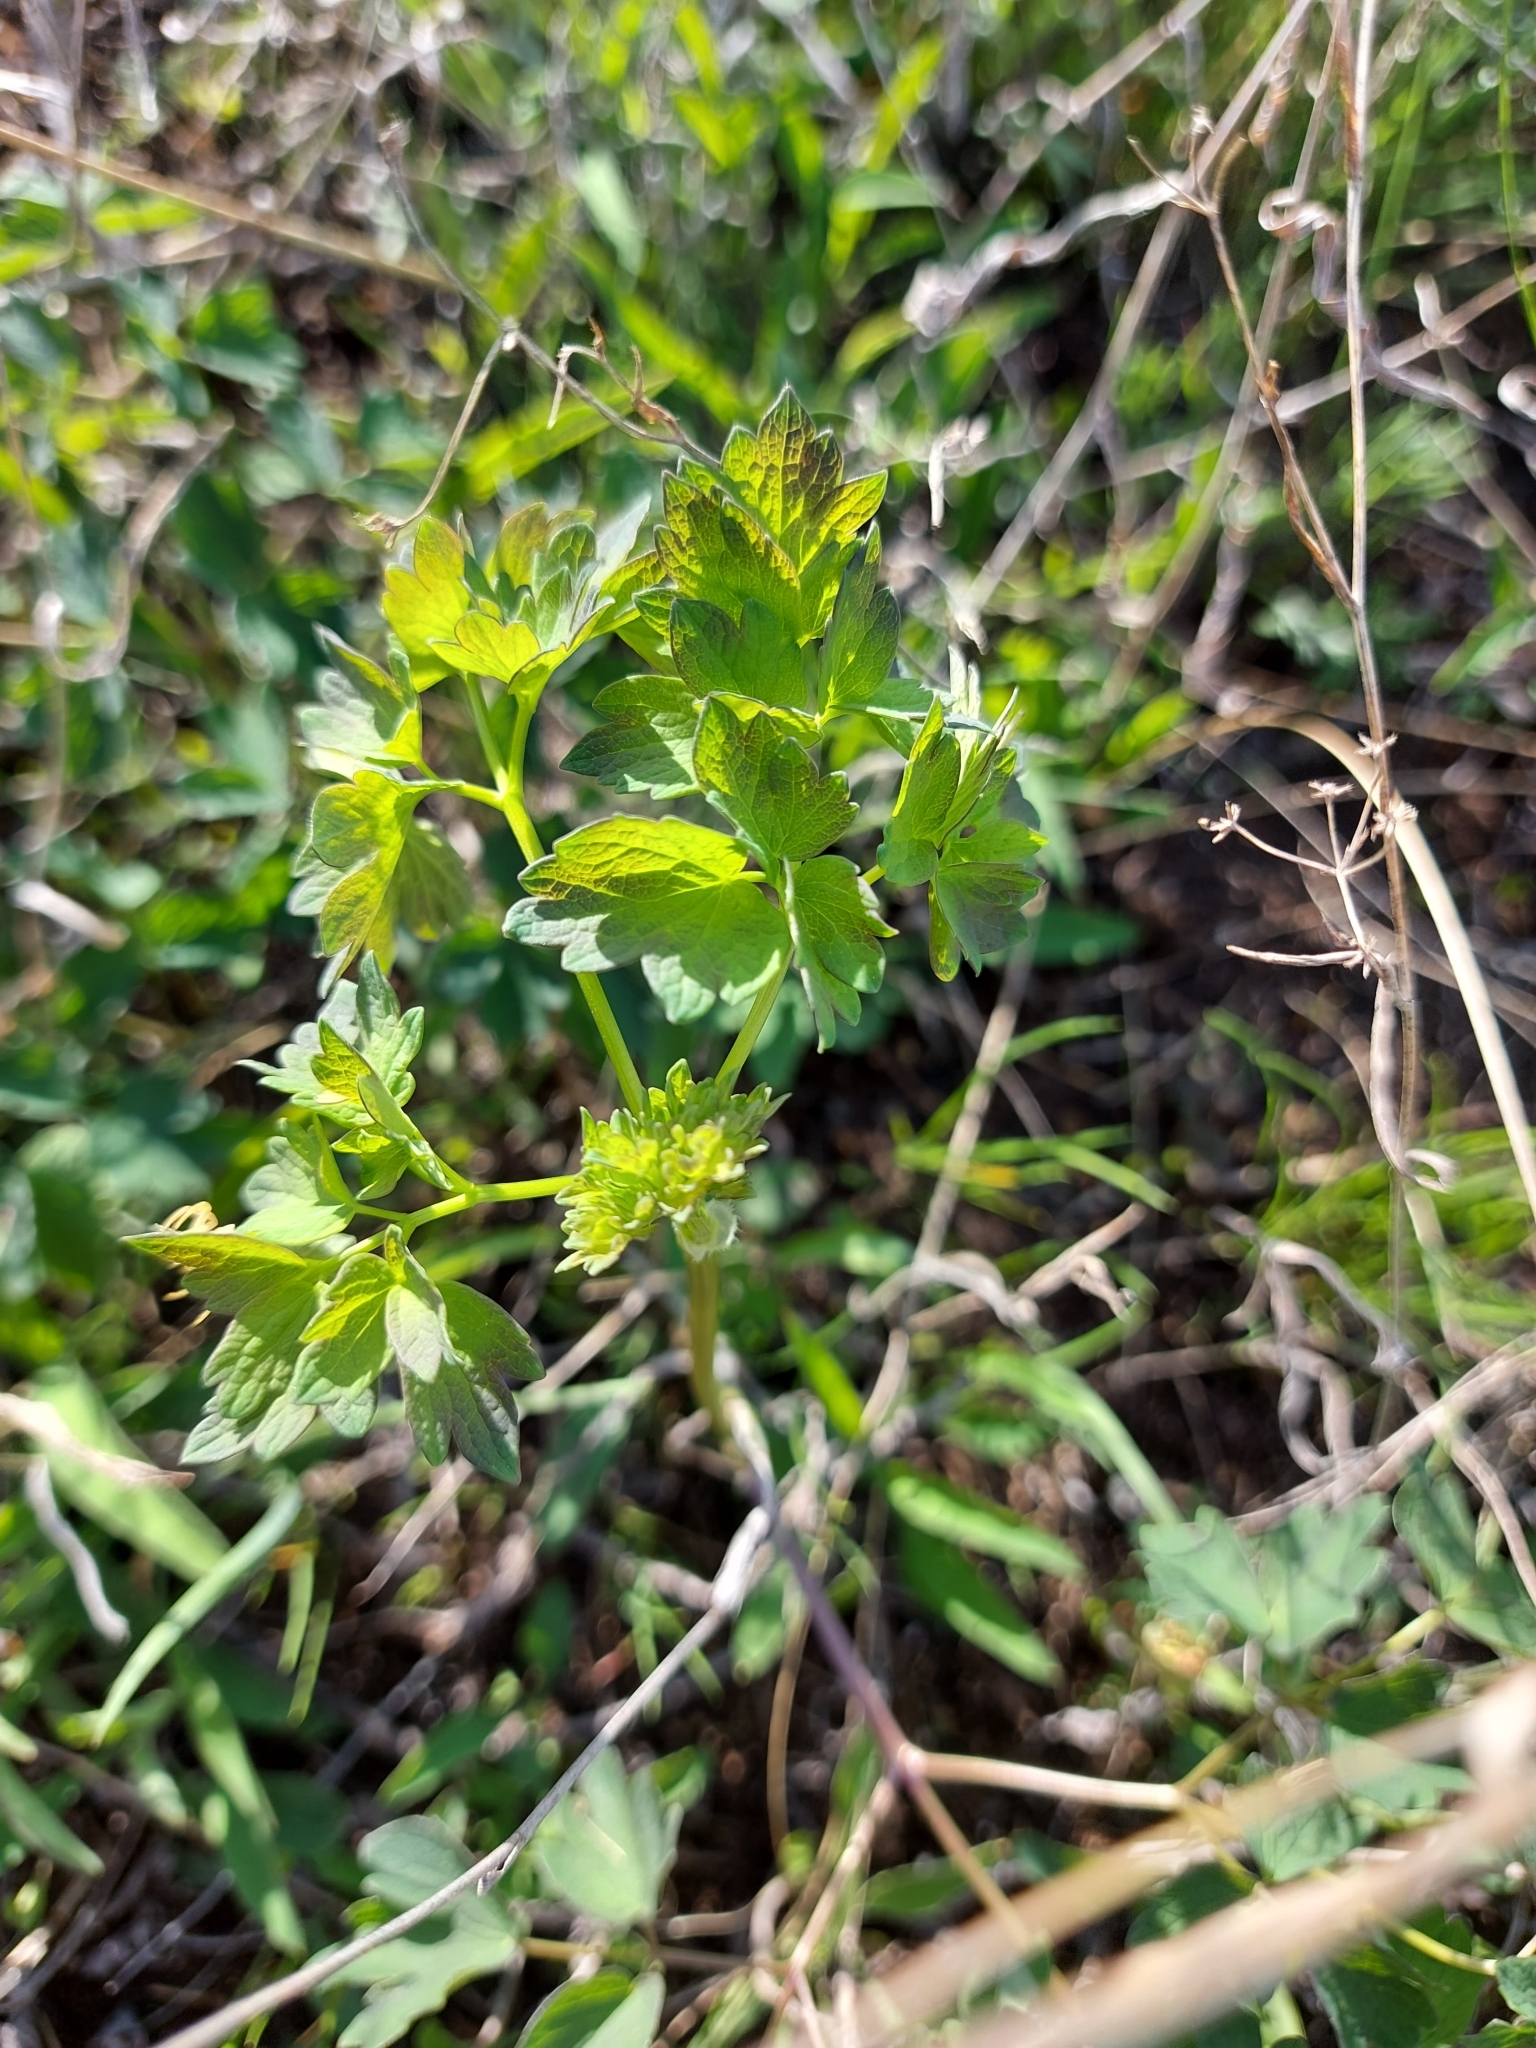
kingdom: Plantae
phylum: Tracheophyta
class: Magnoliopsida
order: Ranunculales
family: Ranunculaceae
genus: Thalictrum
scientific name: Thalictrum minus
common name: Lesser meadow-rue
